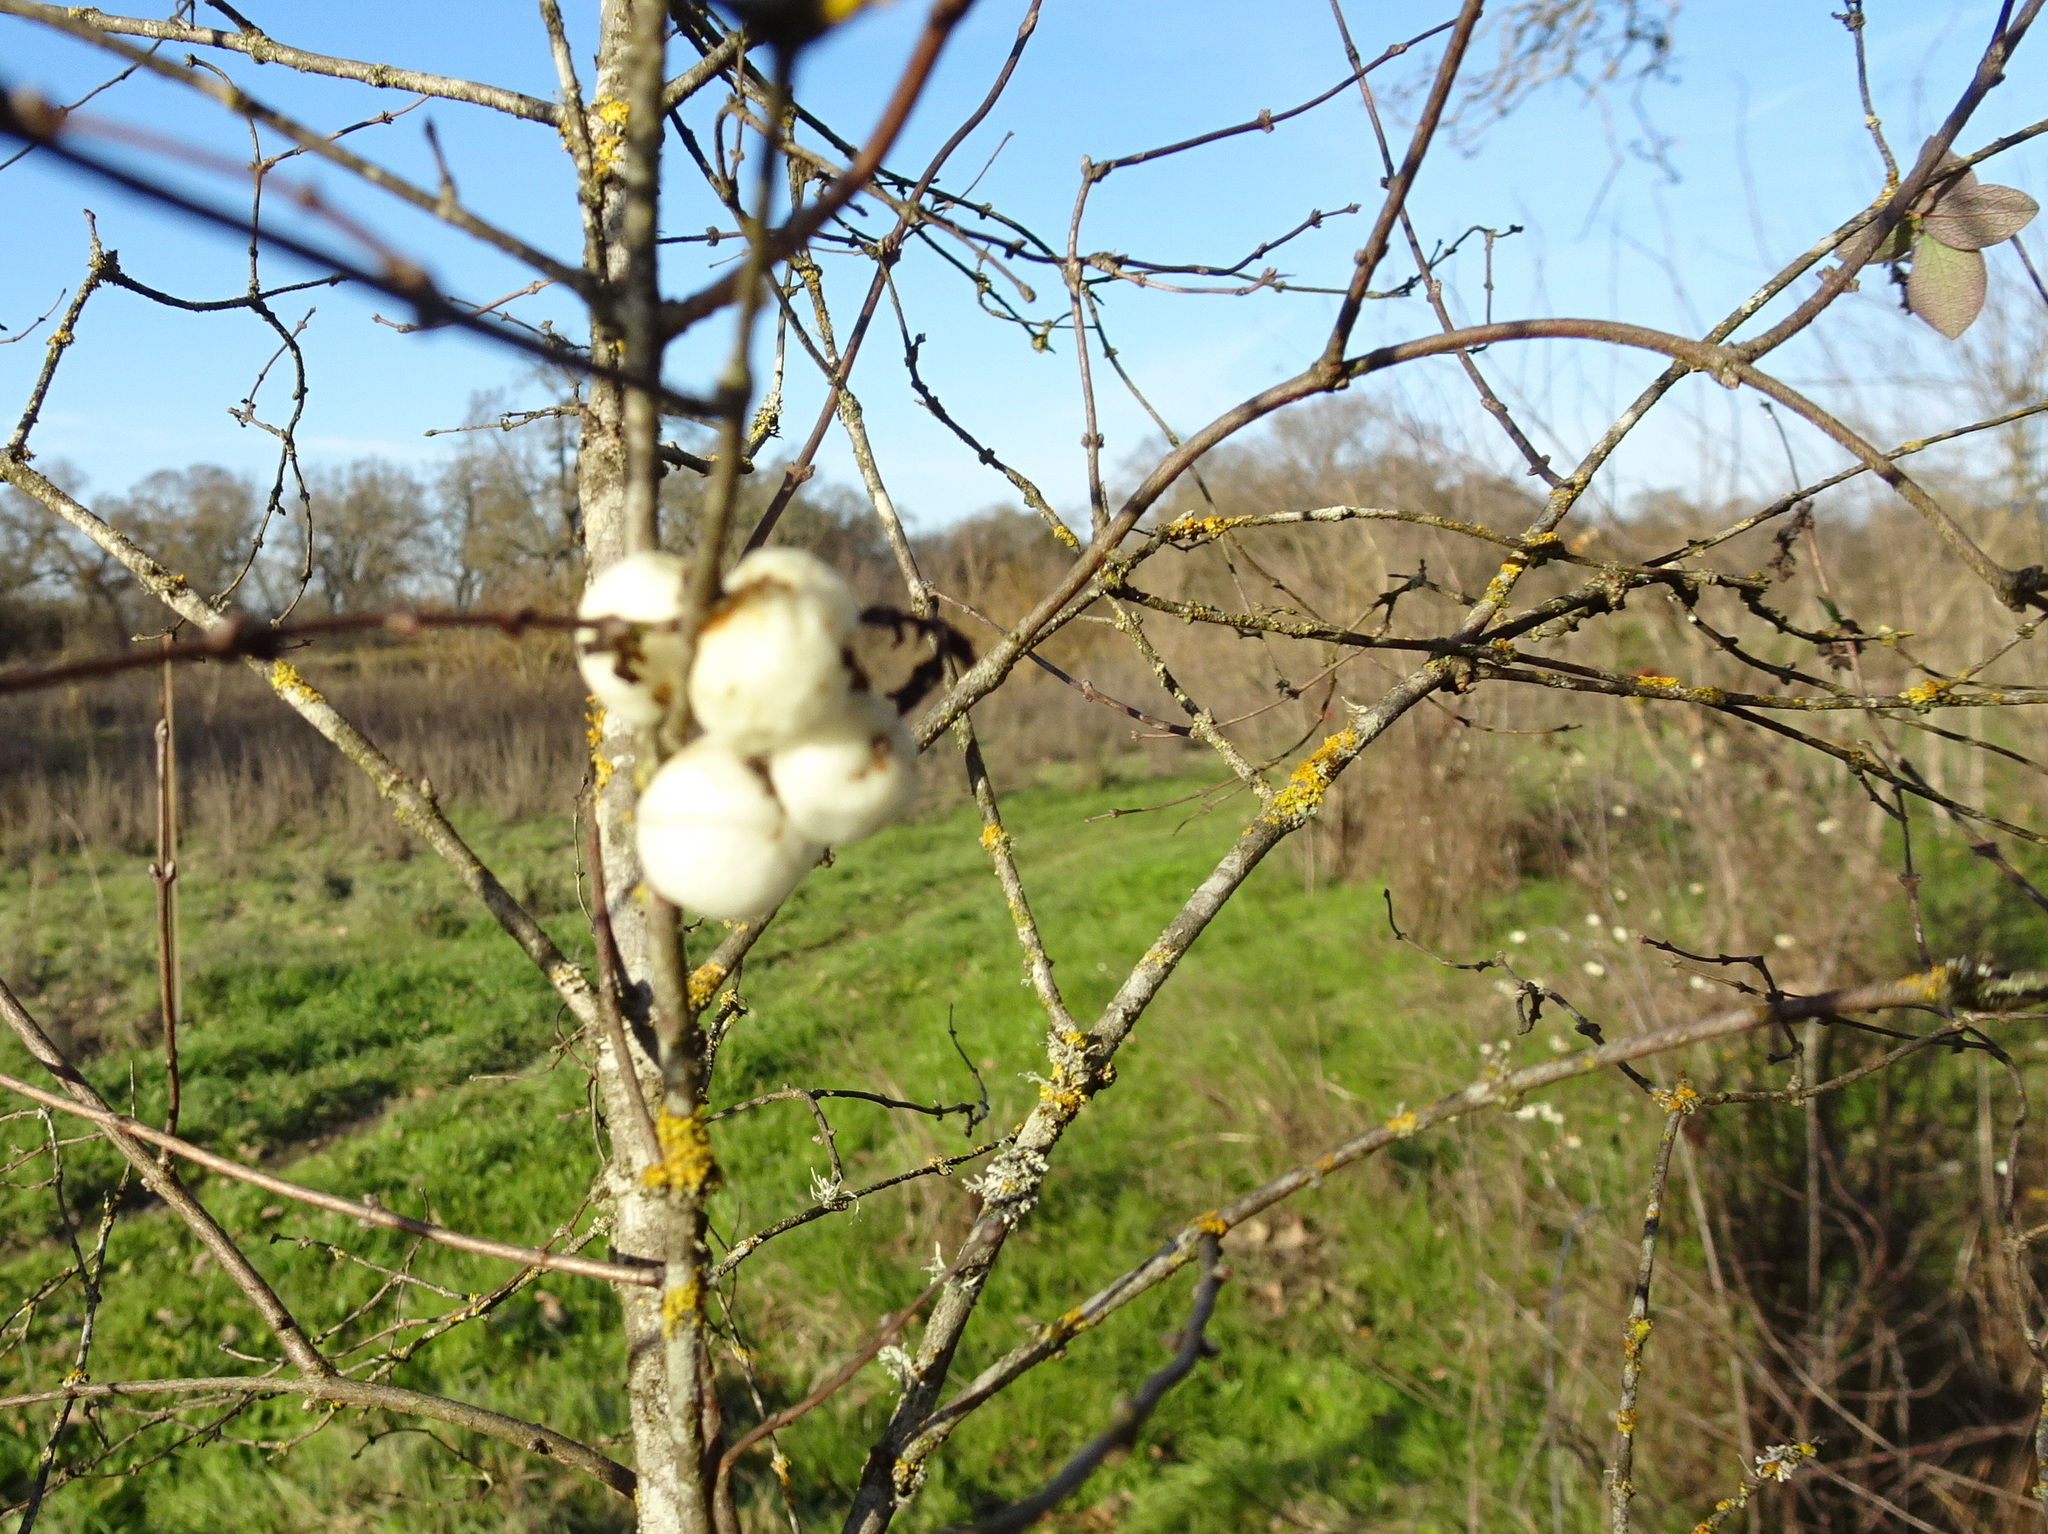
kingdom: Plantae
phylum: Tracheophyta
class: Magnoliopsida
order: Dipsacales
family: Caprifoliaceae
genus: Symphoricarpos
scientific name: Symphoricarpos albus
